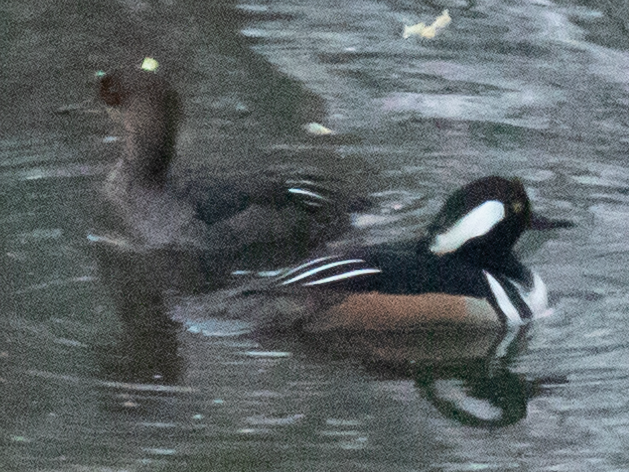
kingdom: Animalia
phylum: Chordata
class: Aves
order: Anseriformes
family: Anatidae
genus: Lophodytes
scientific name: Lophodytes cucullatus
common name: Hooded merganser
